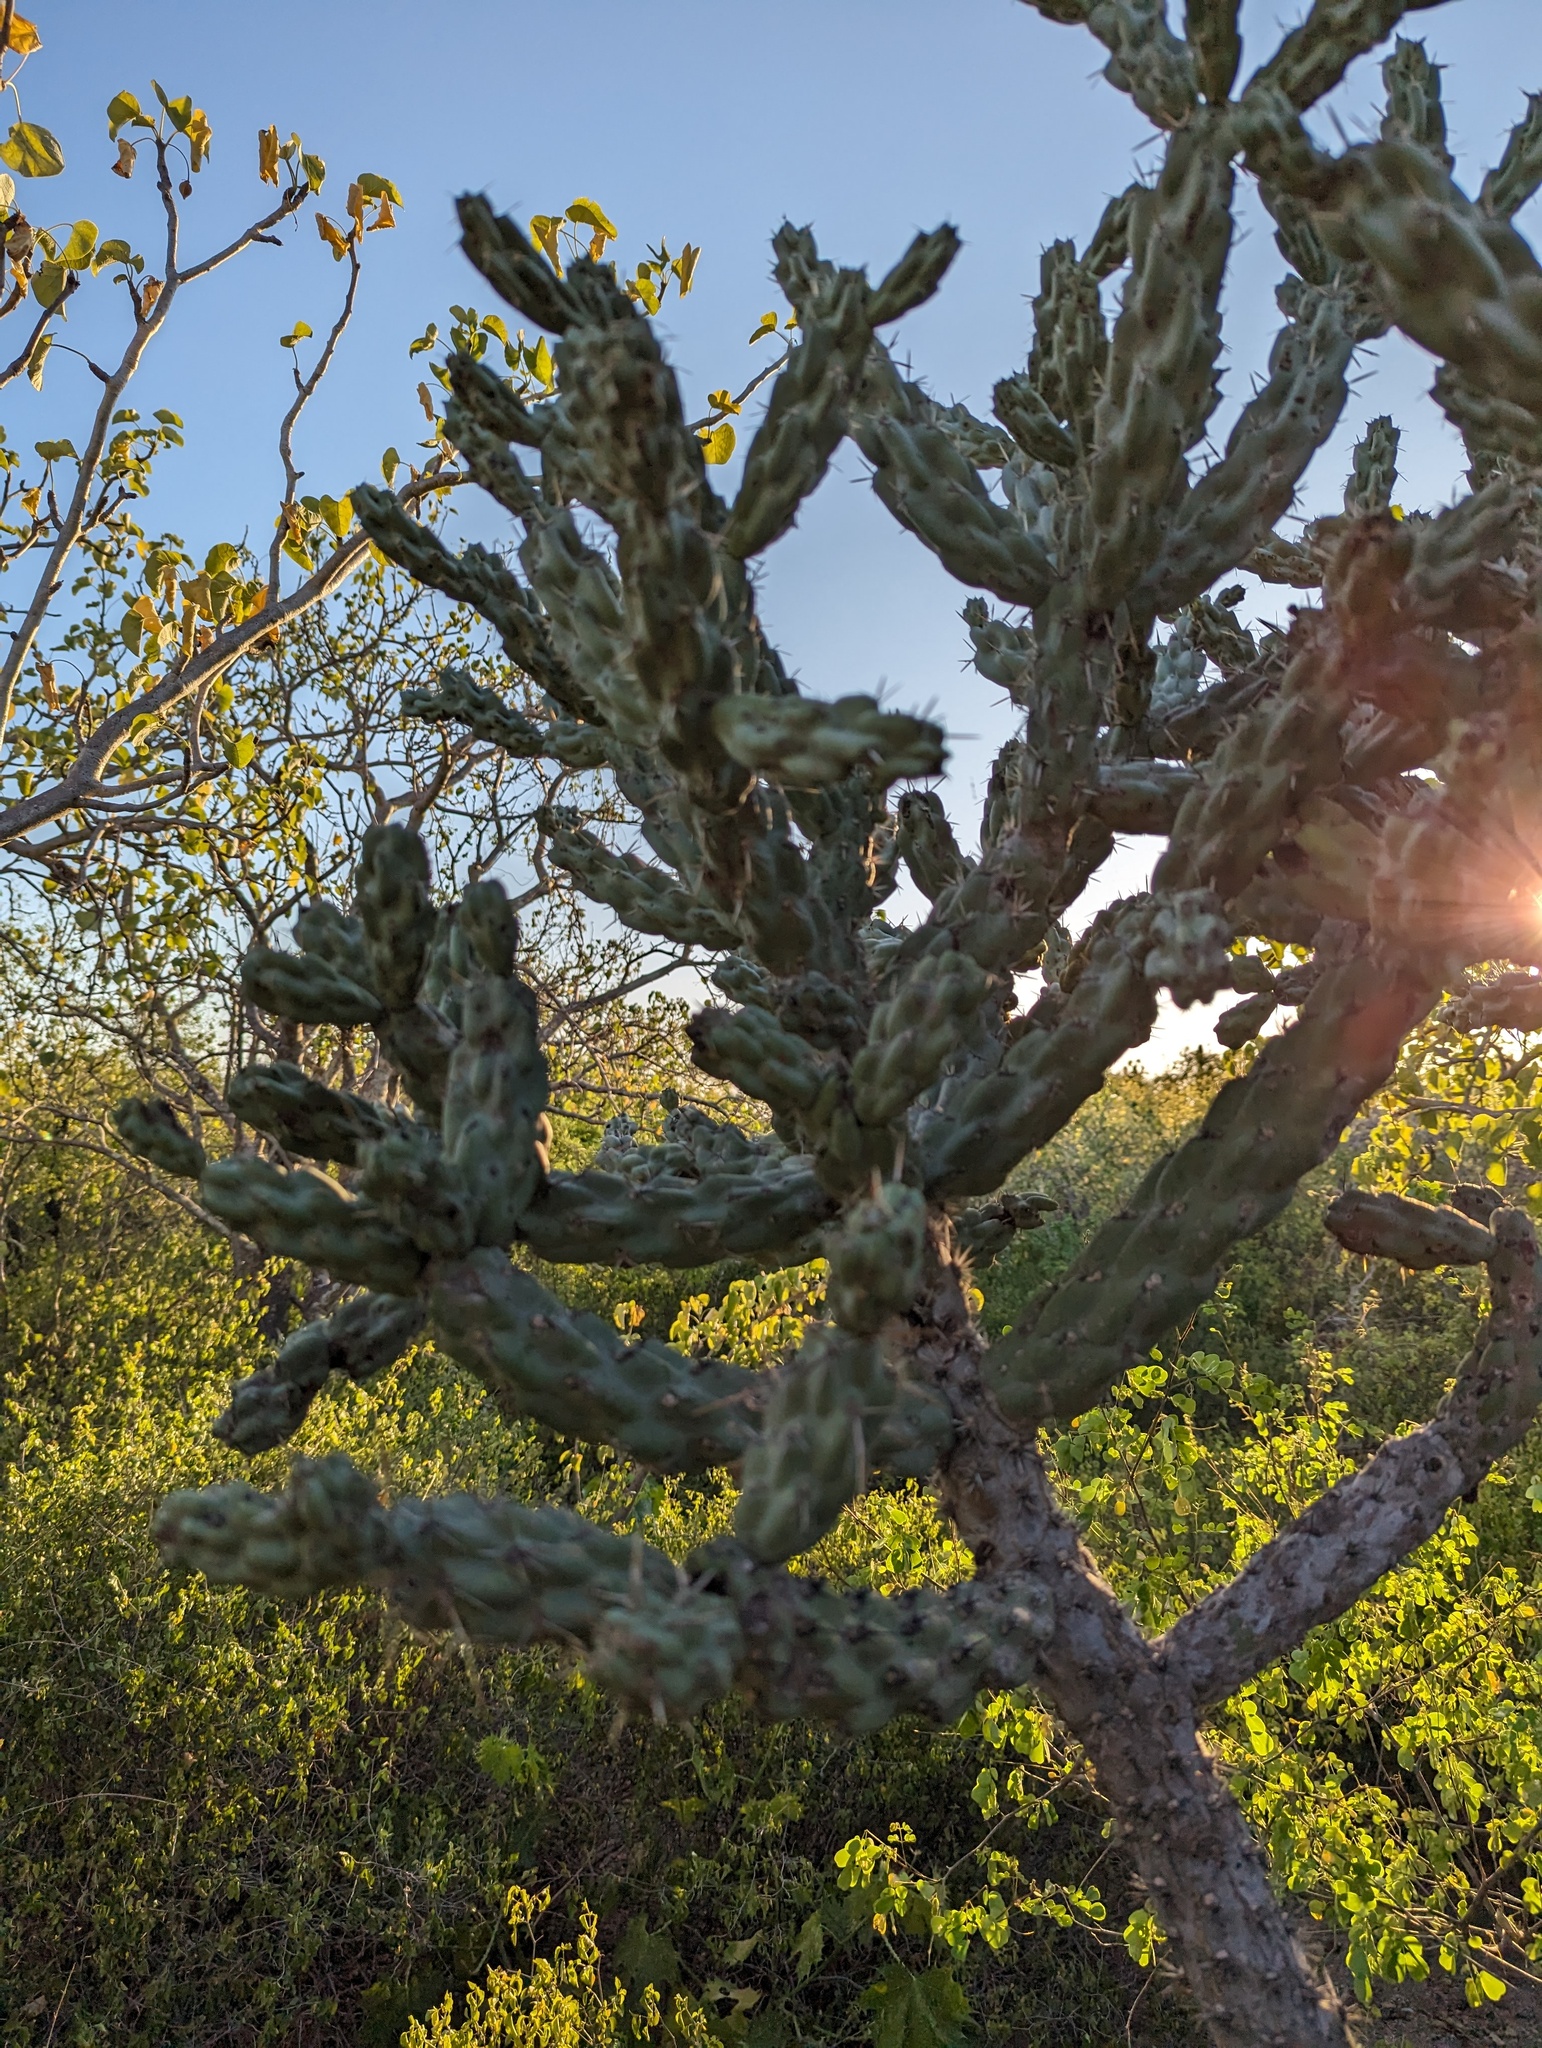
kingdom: Plantae
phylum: Tracheophyta
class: Magnoliopsida
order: Caryophyllales
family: Cactaceae
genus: Cylindropuntia
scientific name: Cylindropuntia cholla
